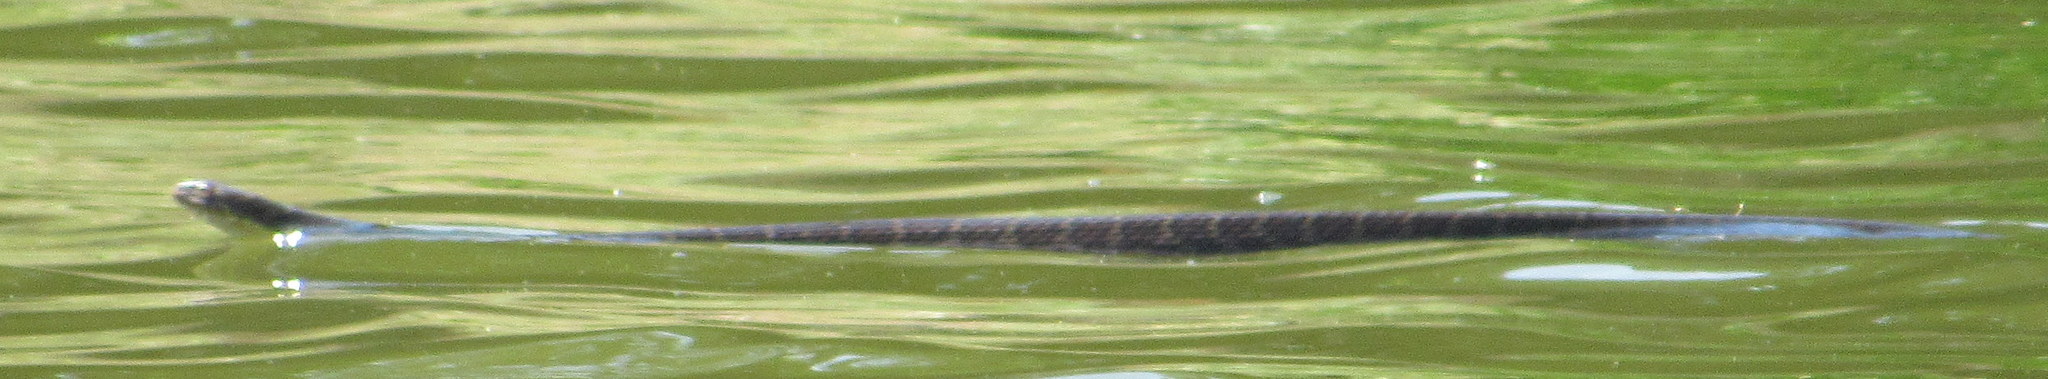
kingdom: Animalia
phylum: Chordata
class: Squamata
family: Colubridae
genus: Nerodia
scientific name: Nerodia erythrogaster
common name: Plainbelly water snake
